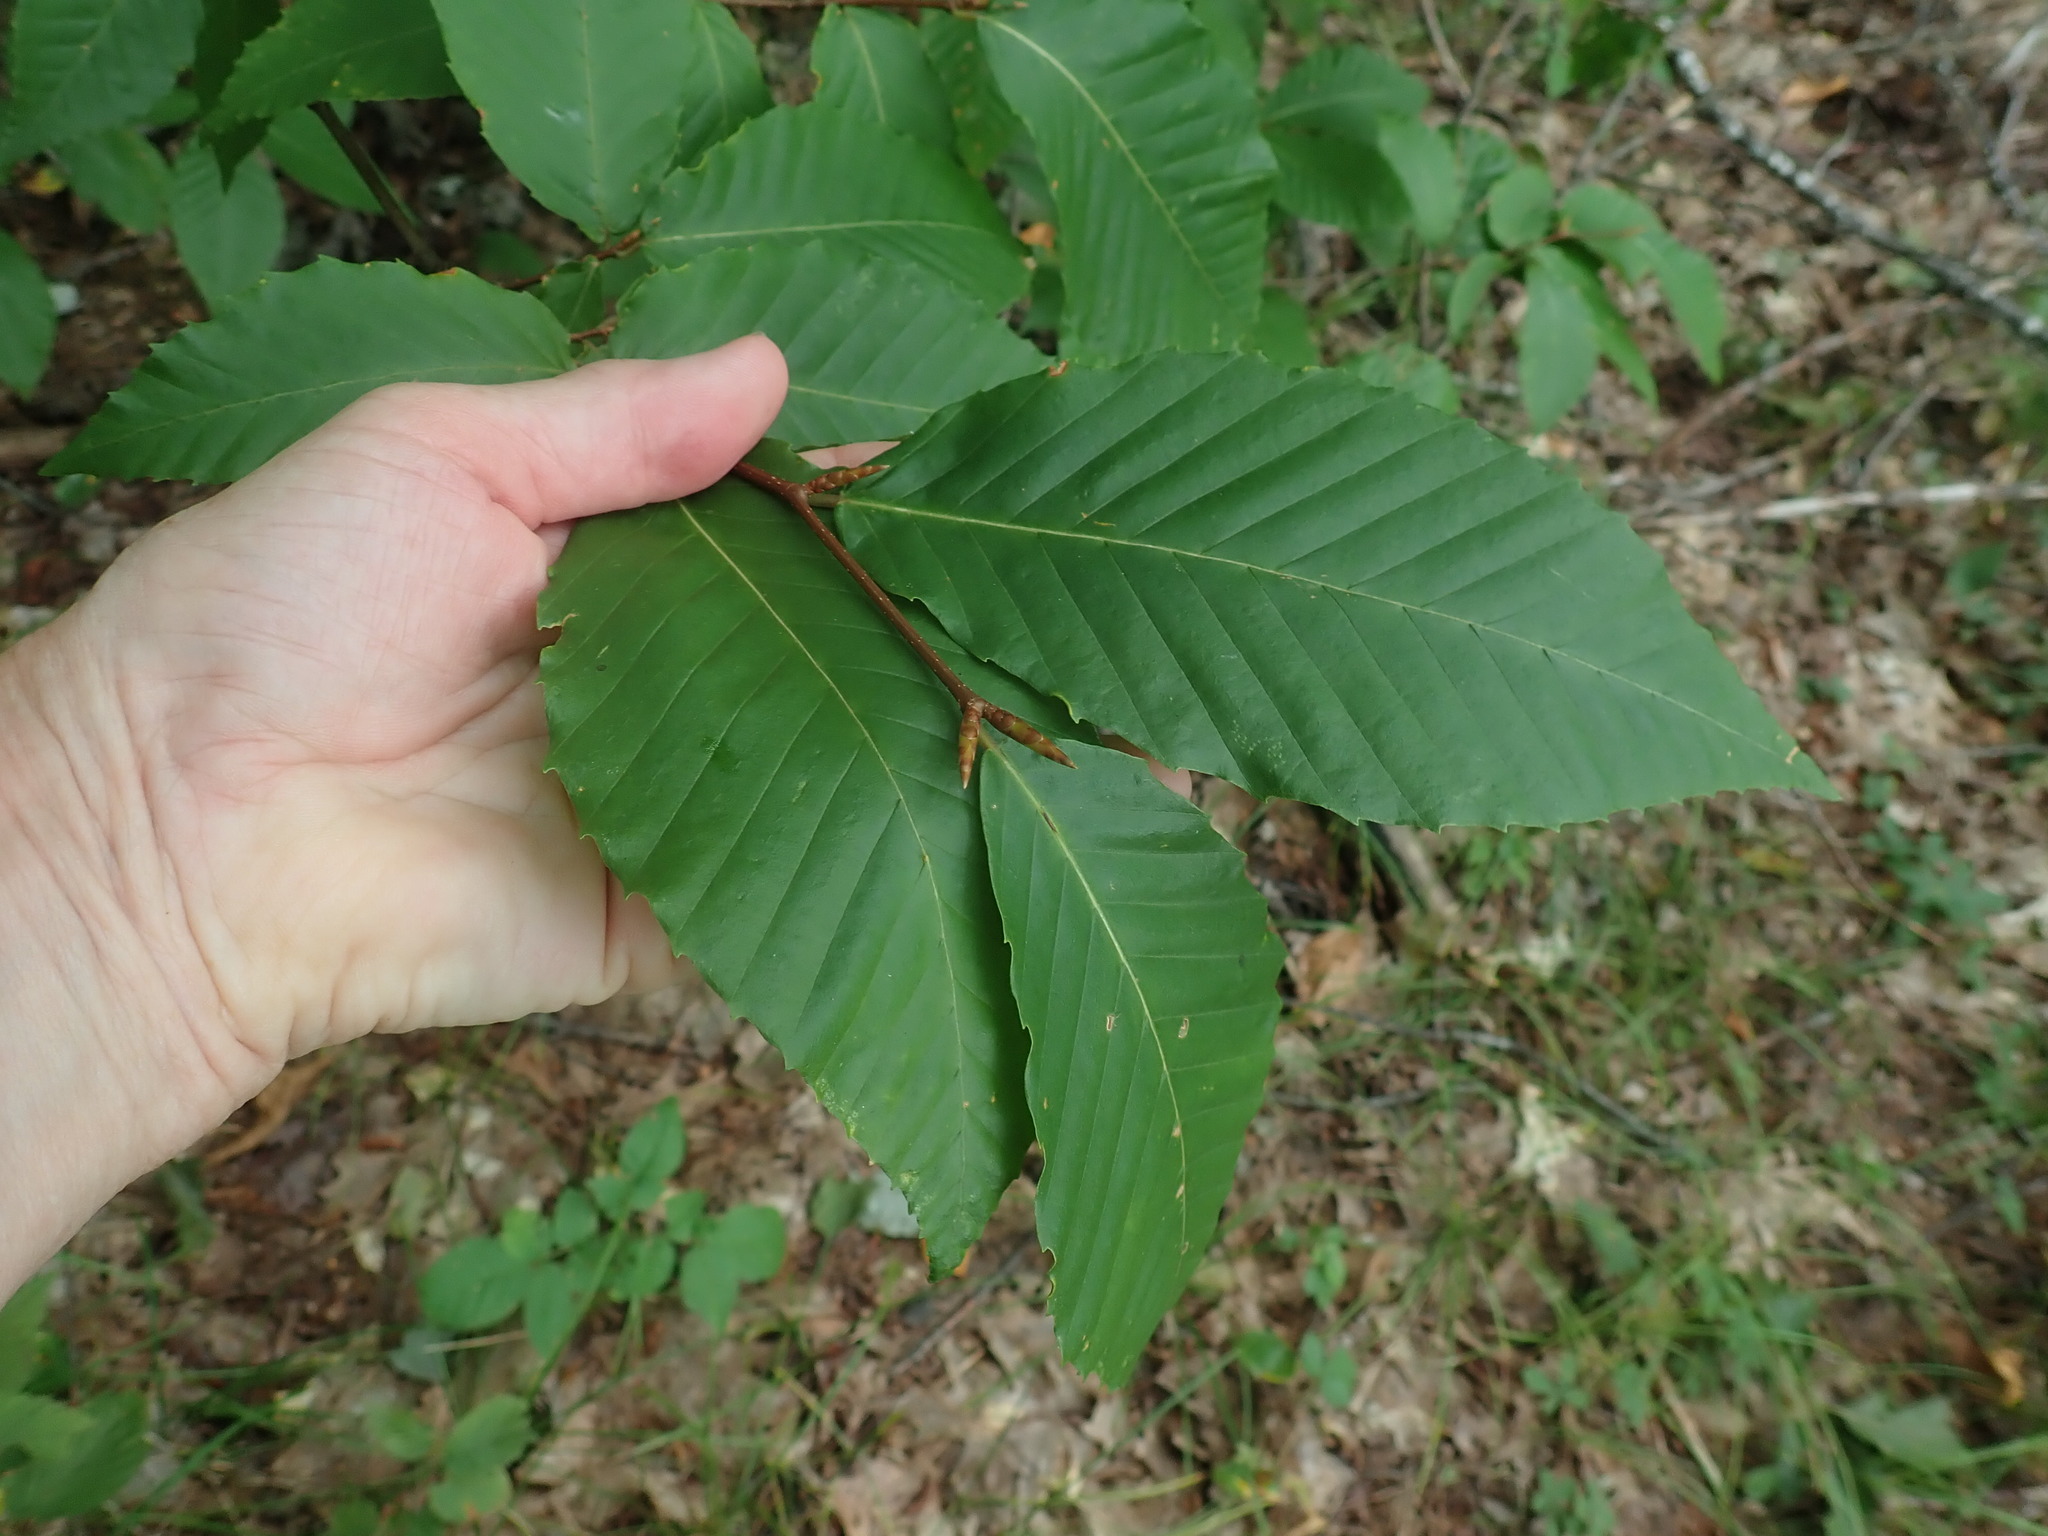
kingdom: Plantae
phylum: Tracheophyta
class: Magnoliopsida
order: Fagales
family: Fagaceae
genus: Fagus
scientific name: Fagus grandifolia
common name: American beech
